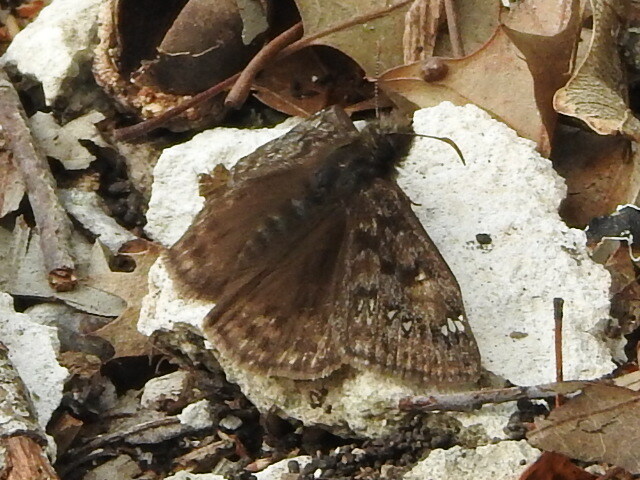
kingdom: Animalia
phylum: Arthropoda
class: Insecta
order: Lepidoptera
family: Hesperiidae
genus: Erynnis
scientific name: Erynnis juvenalis
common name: Juvenal's duskywing
